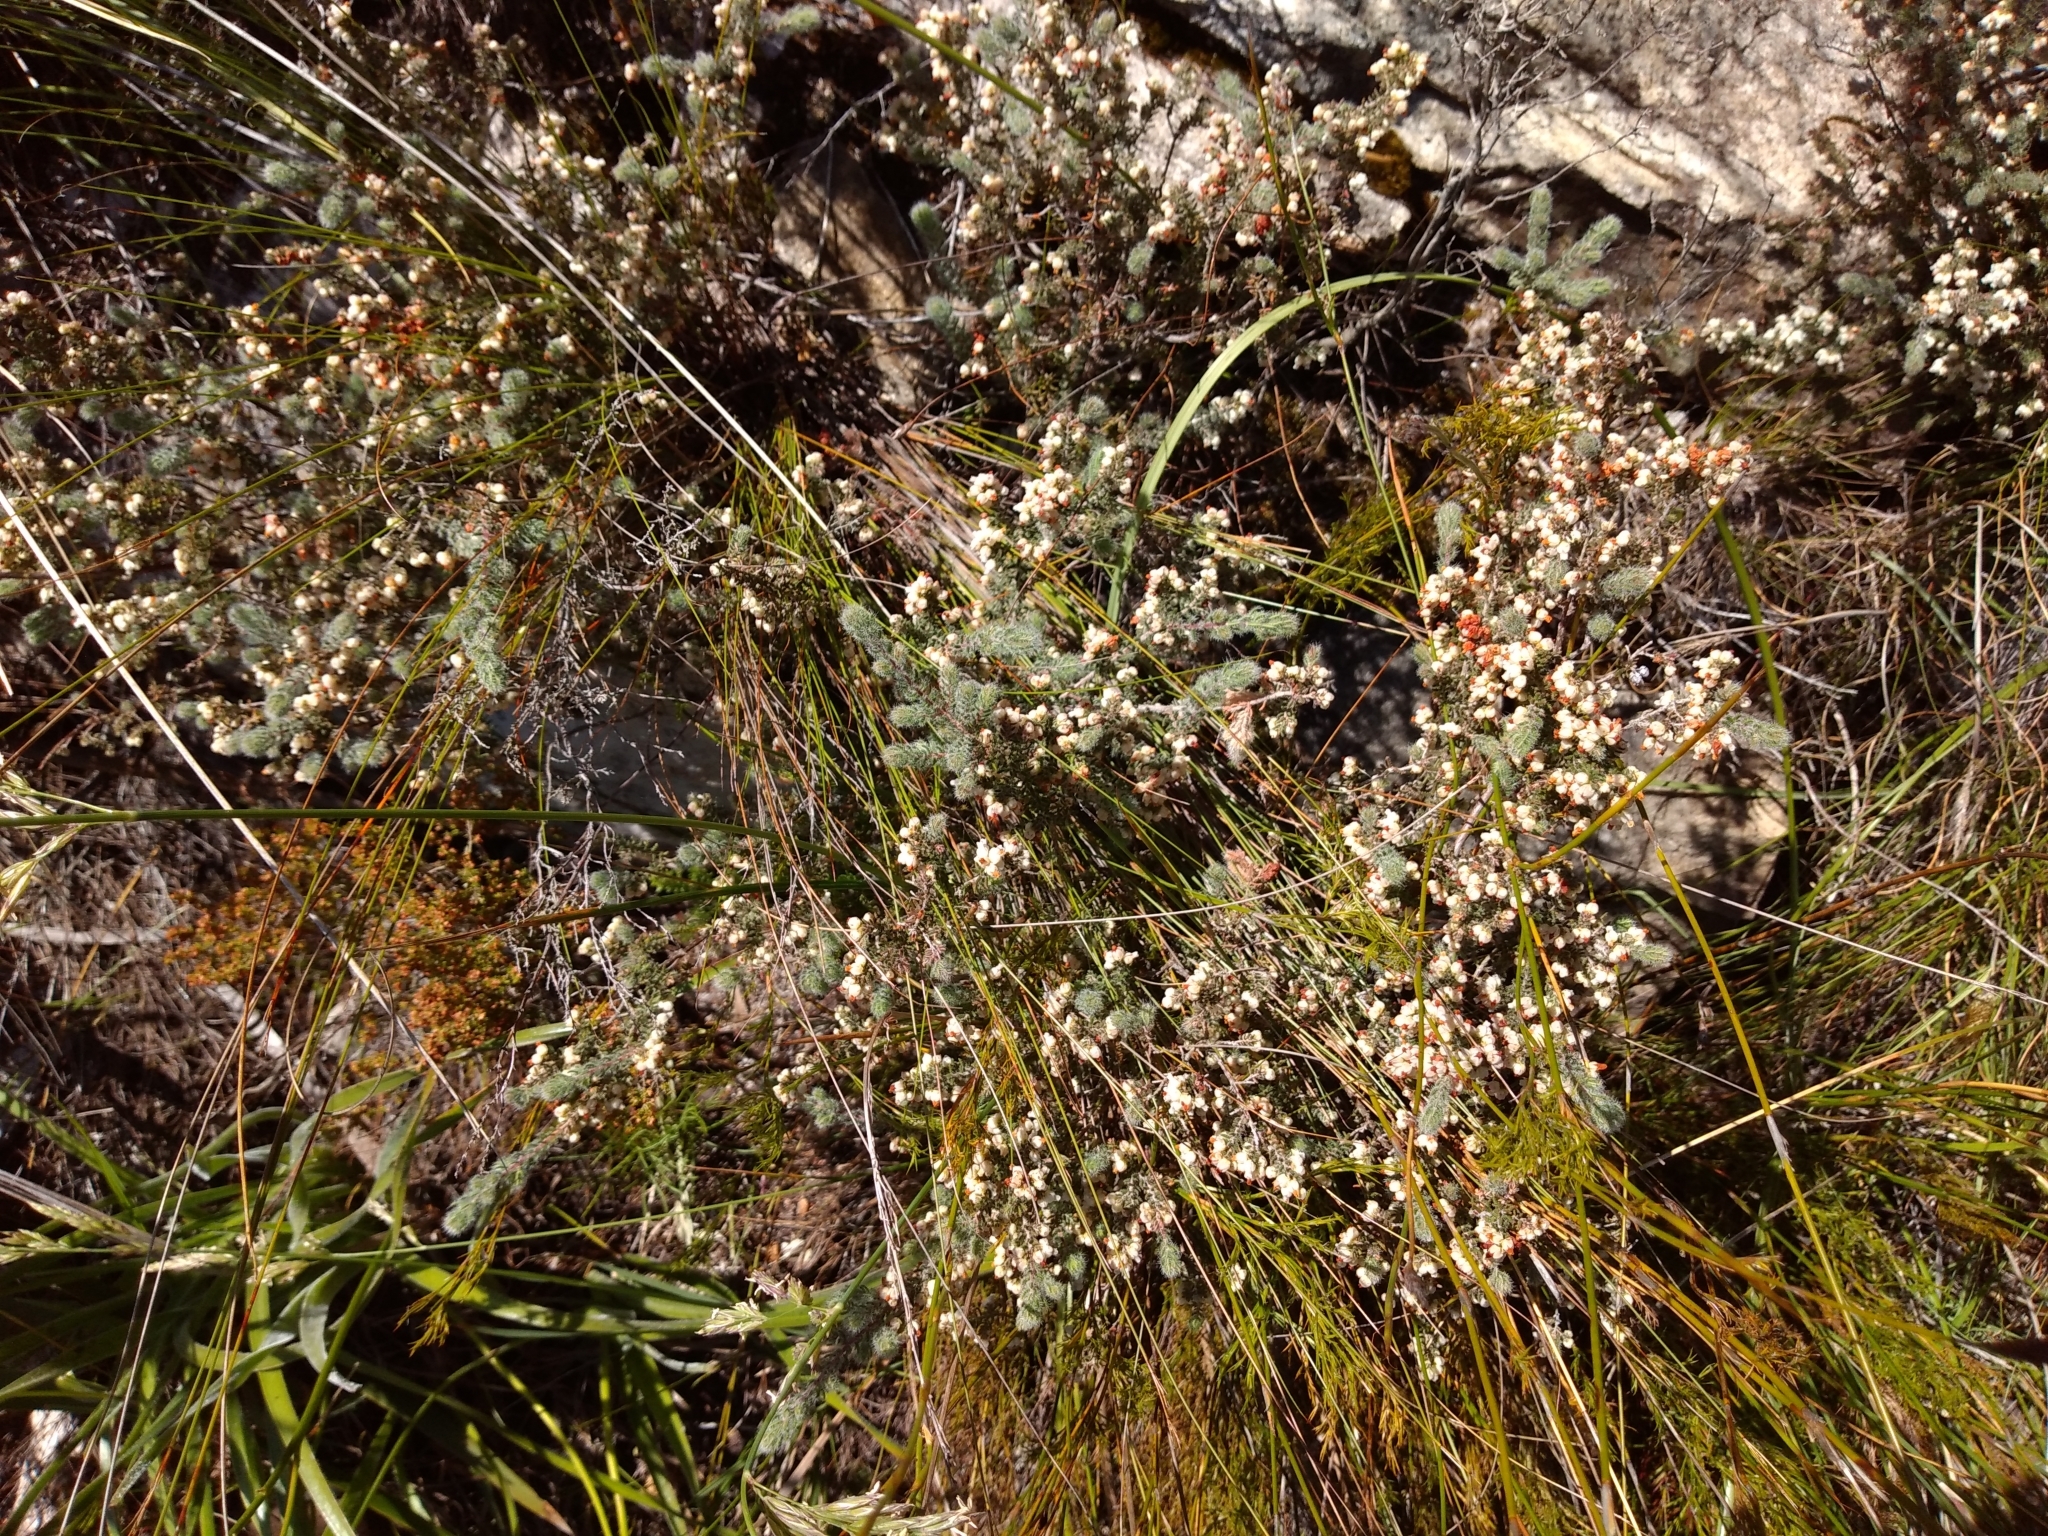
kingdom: Plantae
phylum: Tracheophyta
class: Magnoliopsida
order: Ericales
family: Ericaceae
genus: Erica
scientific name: Erica totta
